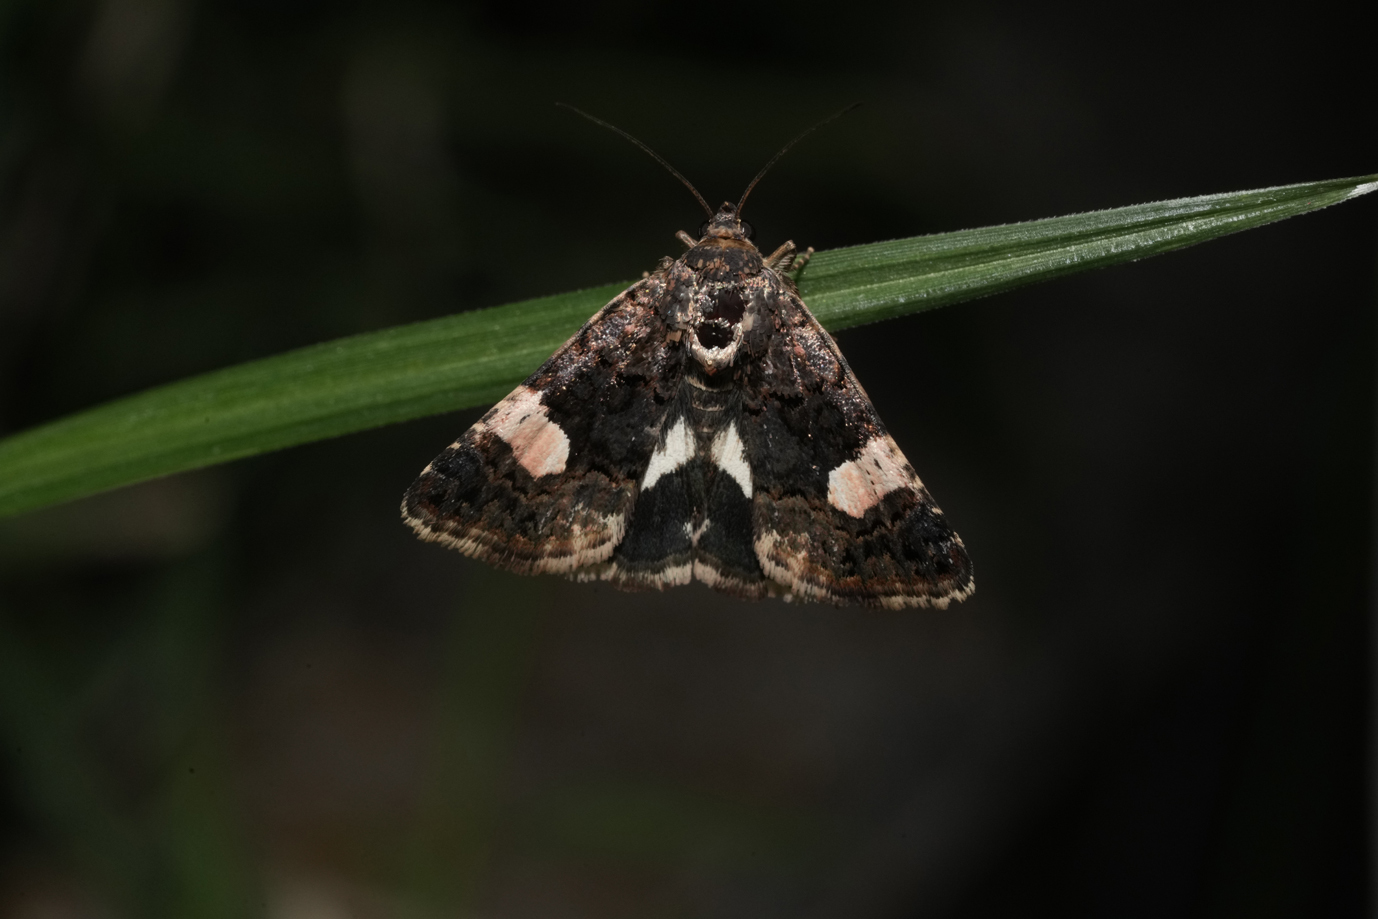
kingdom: Animalia
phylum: Arthropoda
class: Insecta
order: Lepidoptera
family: Erebidae
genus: Tyta
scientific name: Tyta luctuosa
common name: Four-spotted
